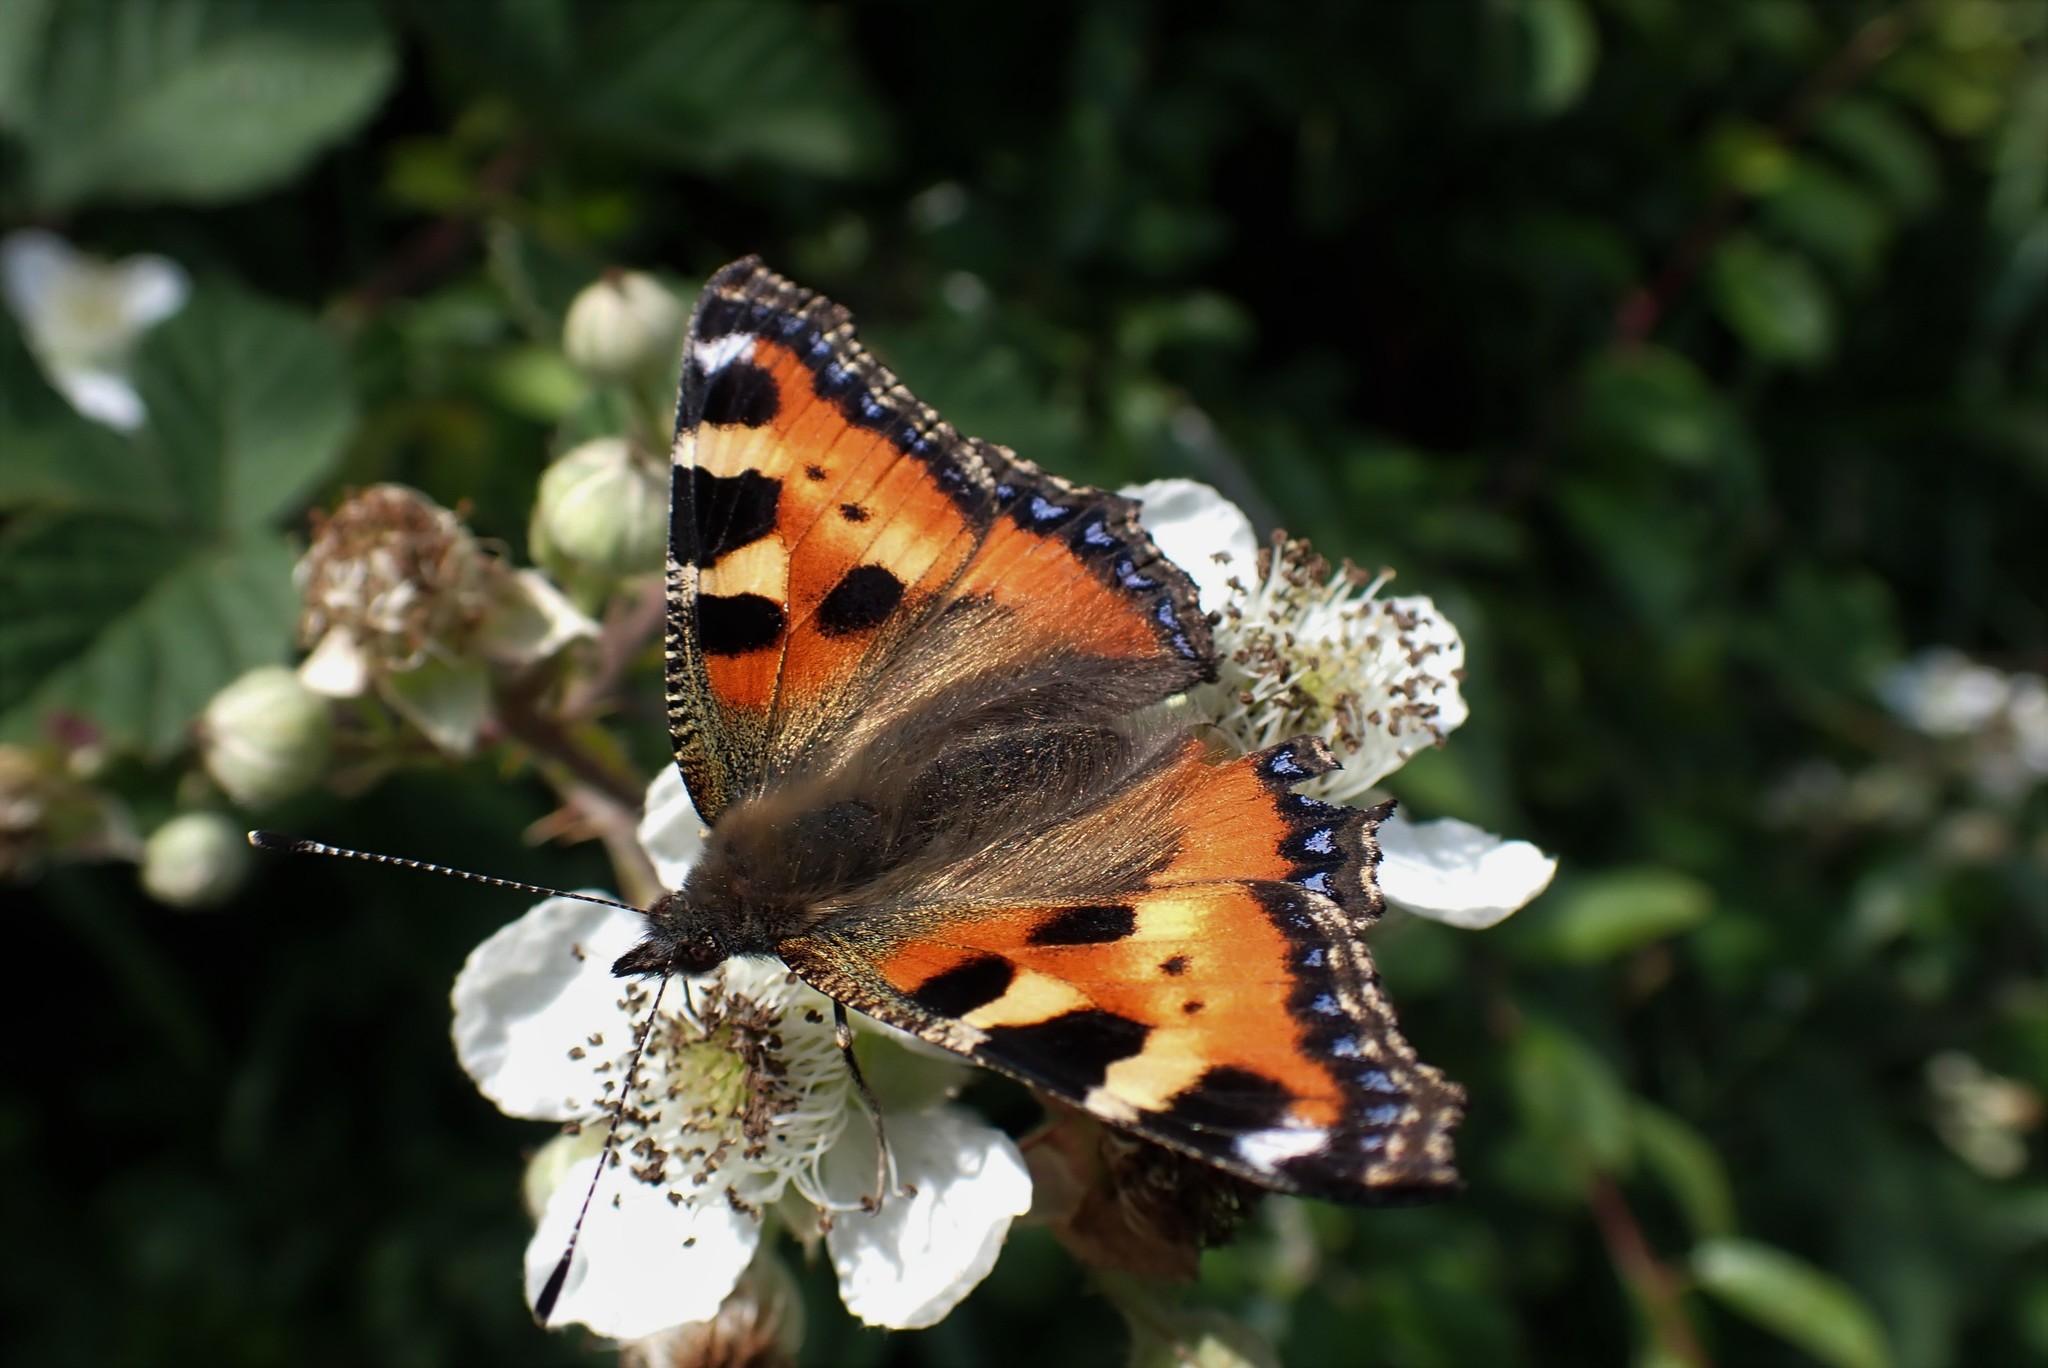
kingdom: Animalia
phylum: Arthropoda
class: Insecta
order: Lepidoptera
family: Nymphalidae
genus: Aglais
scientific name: Aglais urticae
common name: Small tortoiseshell
